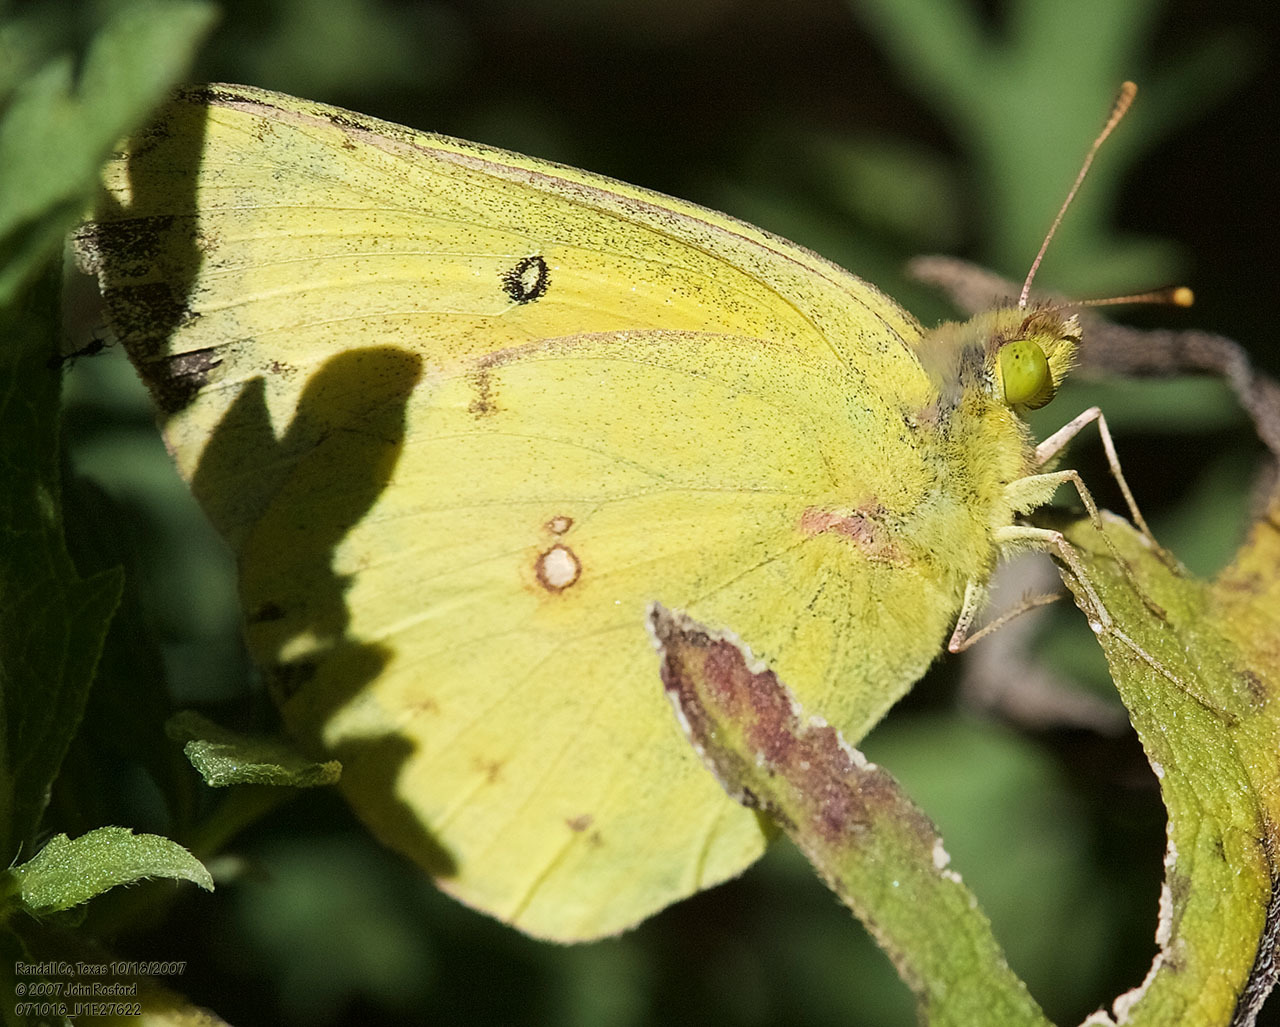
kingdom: Animalia
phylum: Arthropoda
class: Insecta
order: Lepidoptera
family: Pieridae
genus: Colias
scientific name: Colias eurytheme
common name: Alfalfa butterfly
